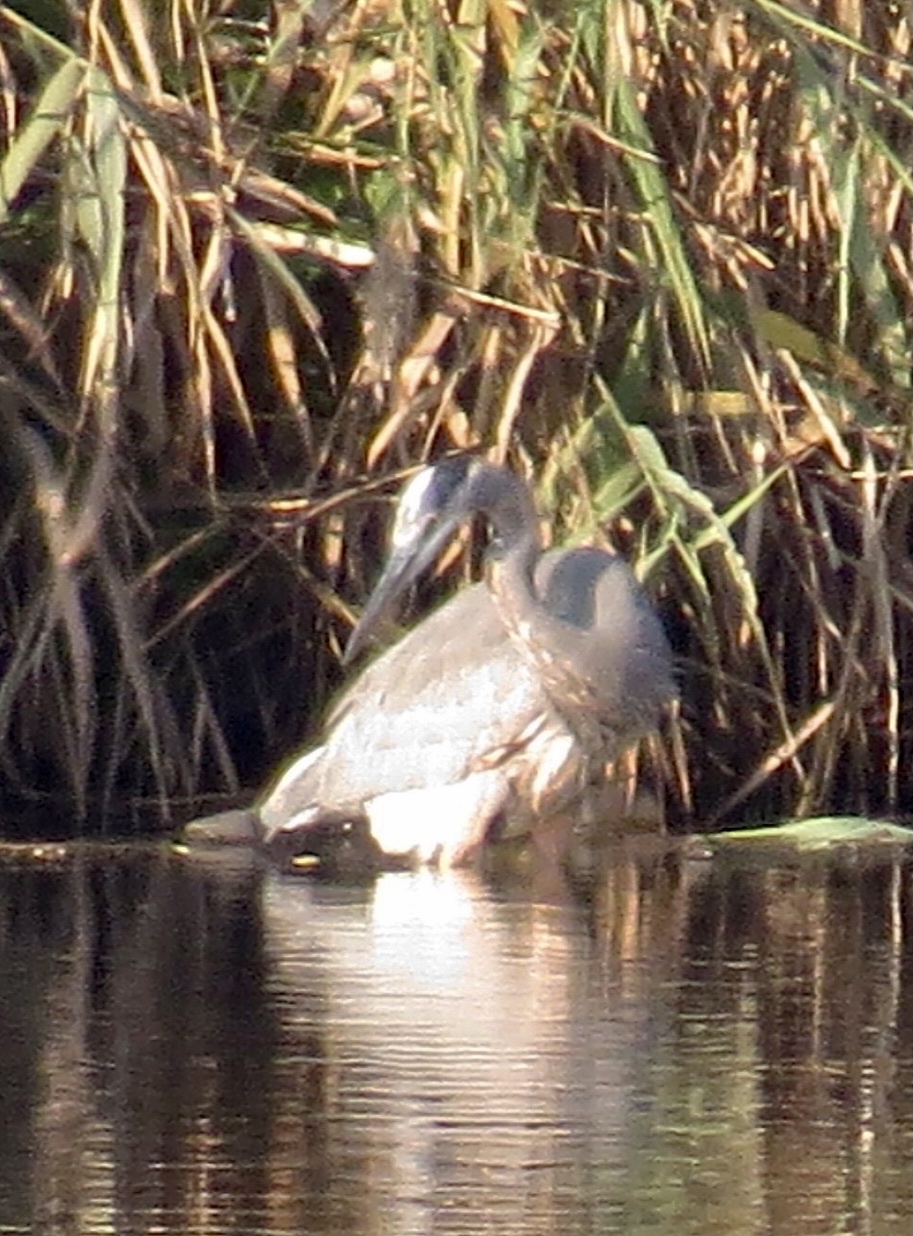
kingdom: Animalia
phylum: Chordata
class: Aves
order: Pelecaniformes
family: Ardeidae
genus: Ardea
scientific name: Ardea herodias
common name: Great blue heron
